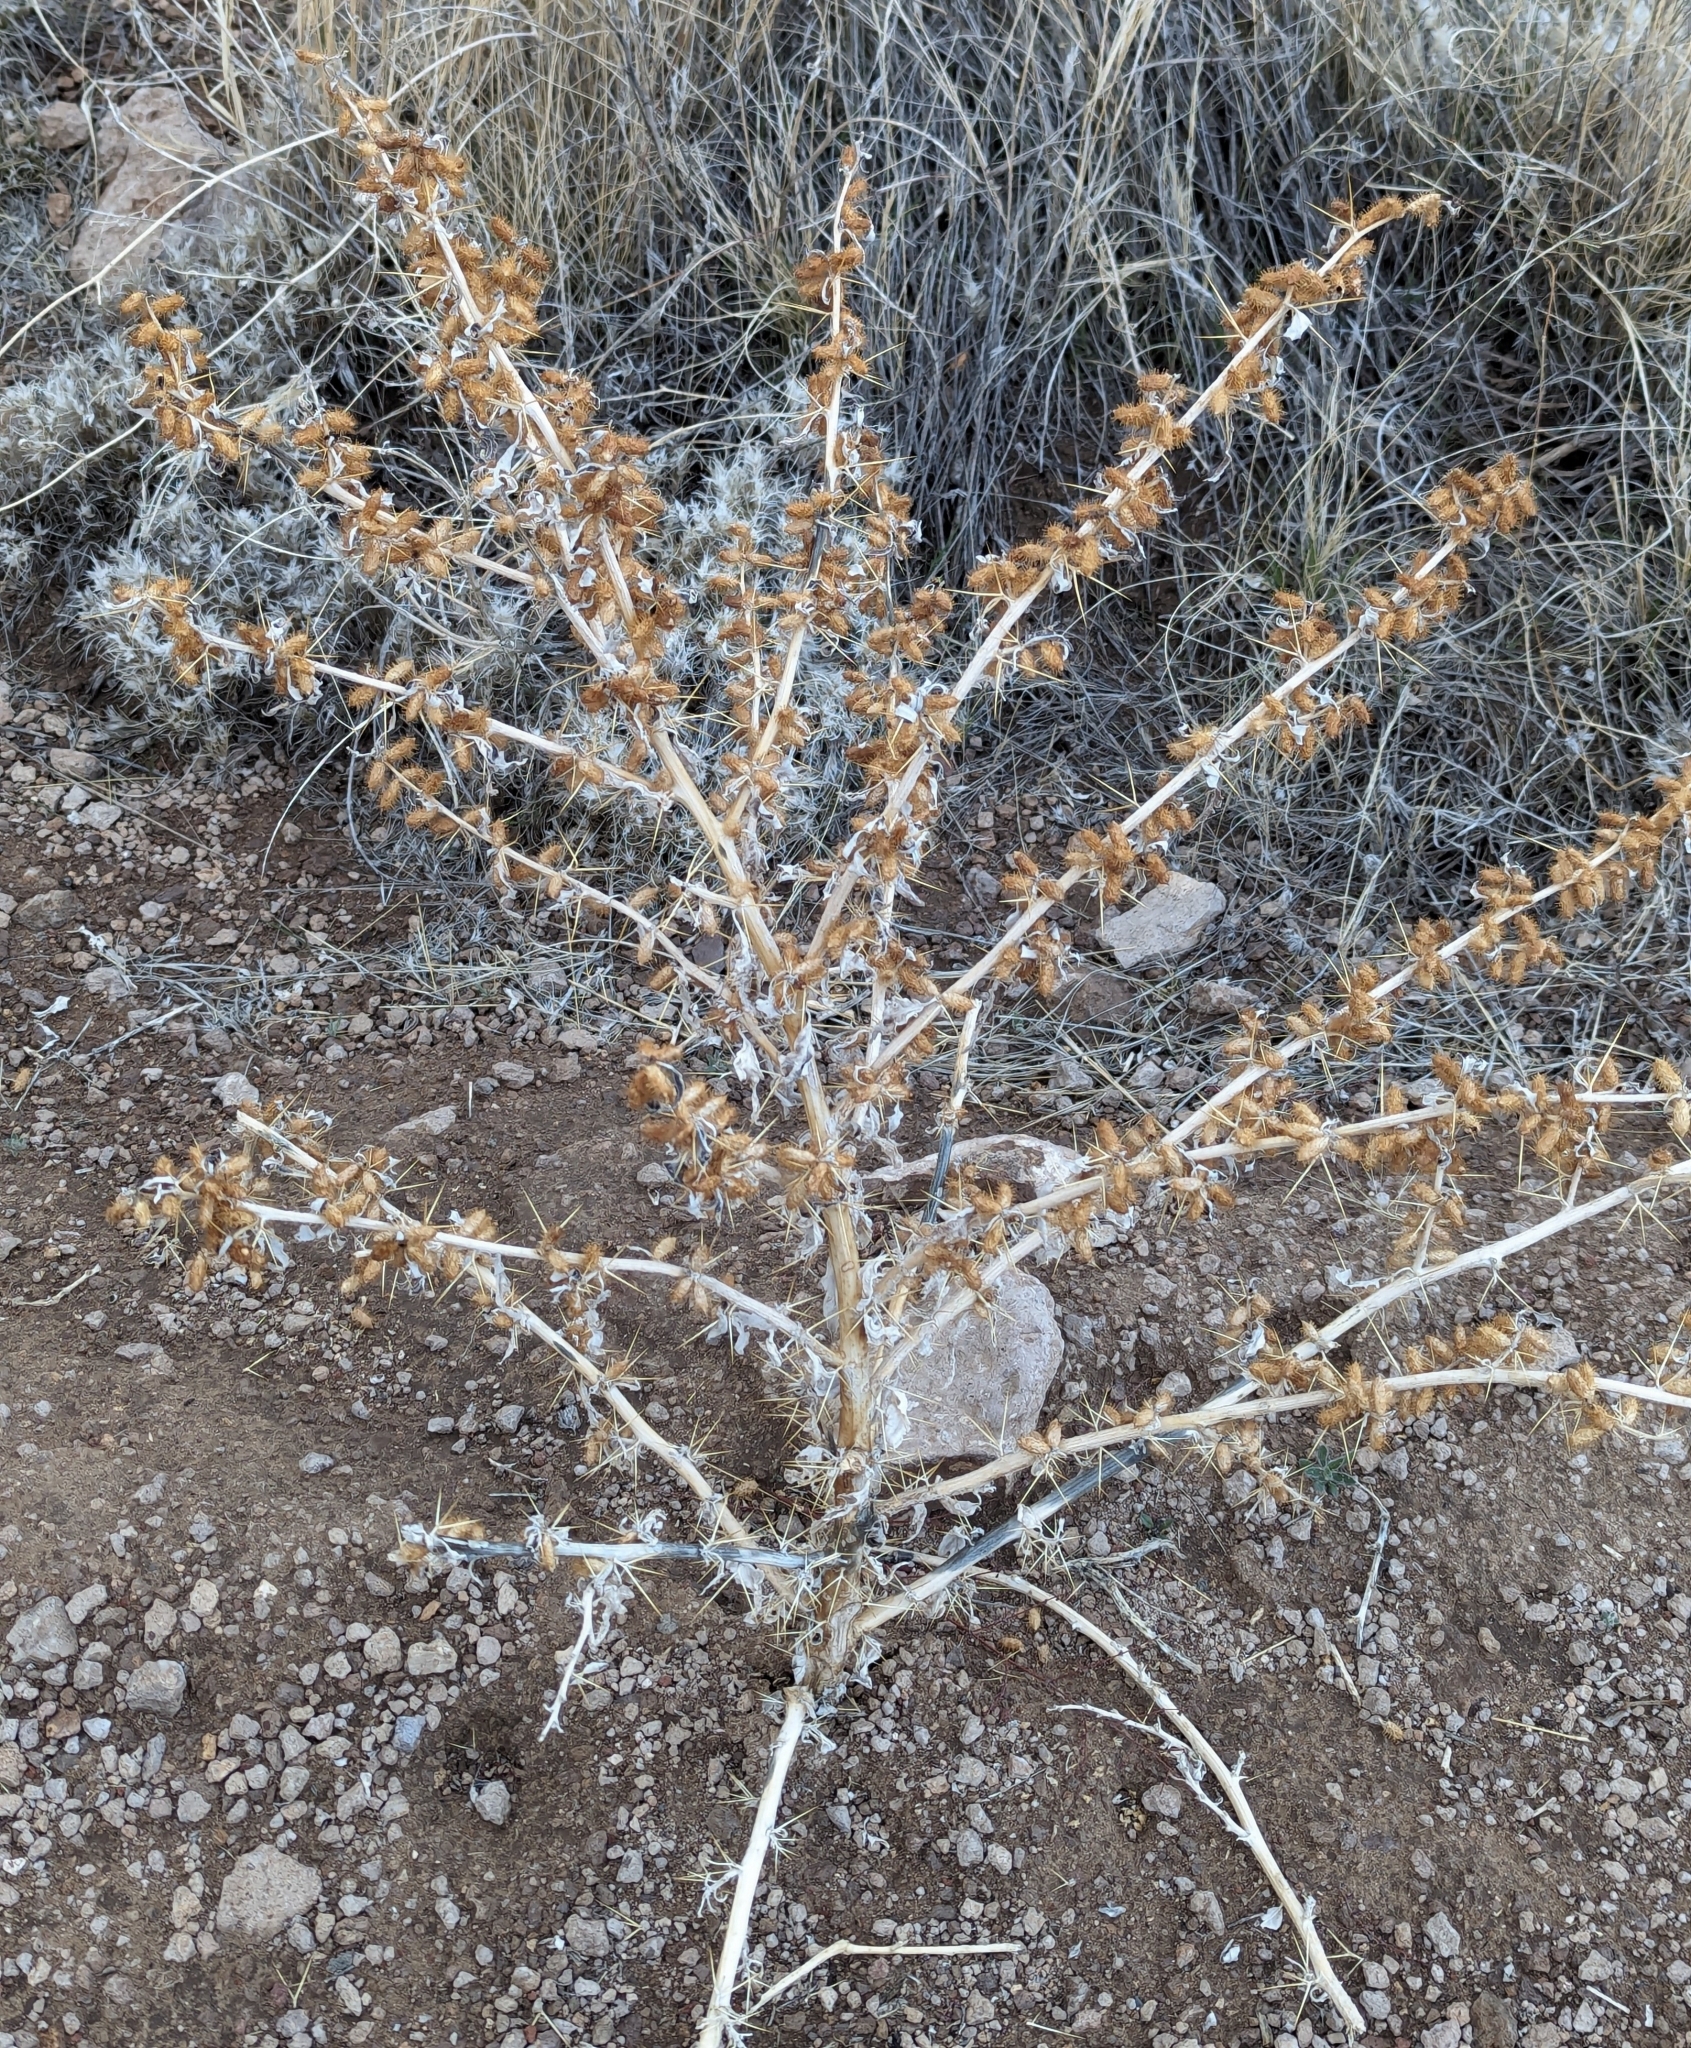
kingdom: Plantae
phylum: Tracheophyta
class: Magnoliopsida
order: Asterales
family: Asteraceae
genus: Xanthium
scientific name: Xanthium strumarium
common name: Rough cocklebur
